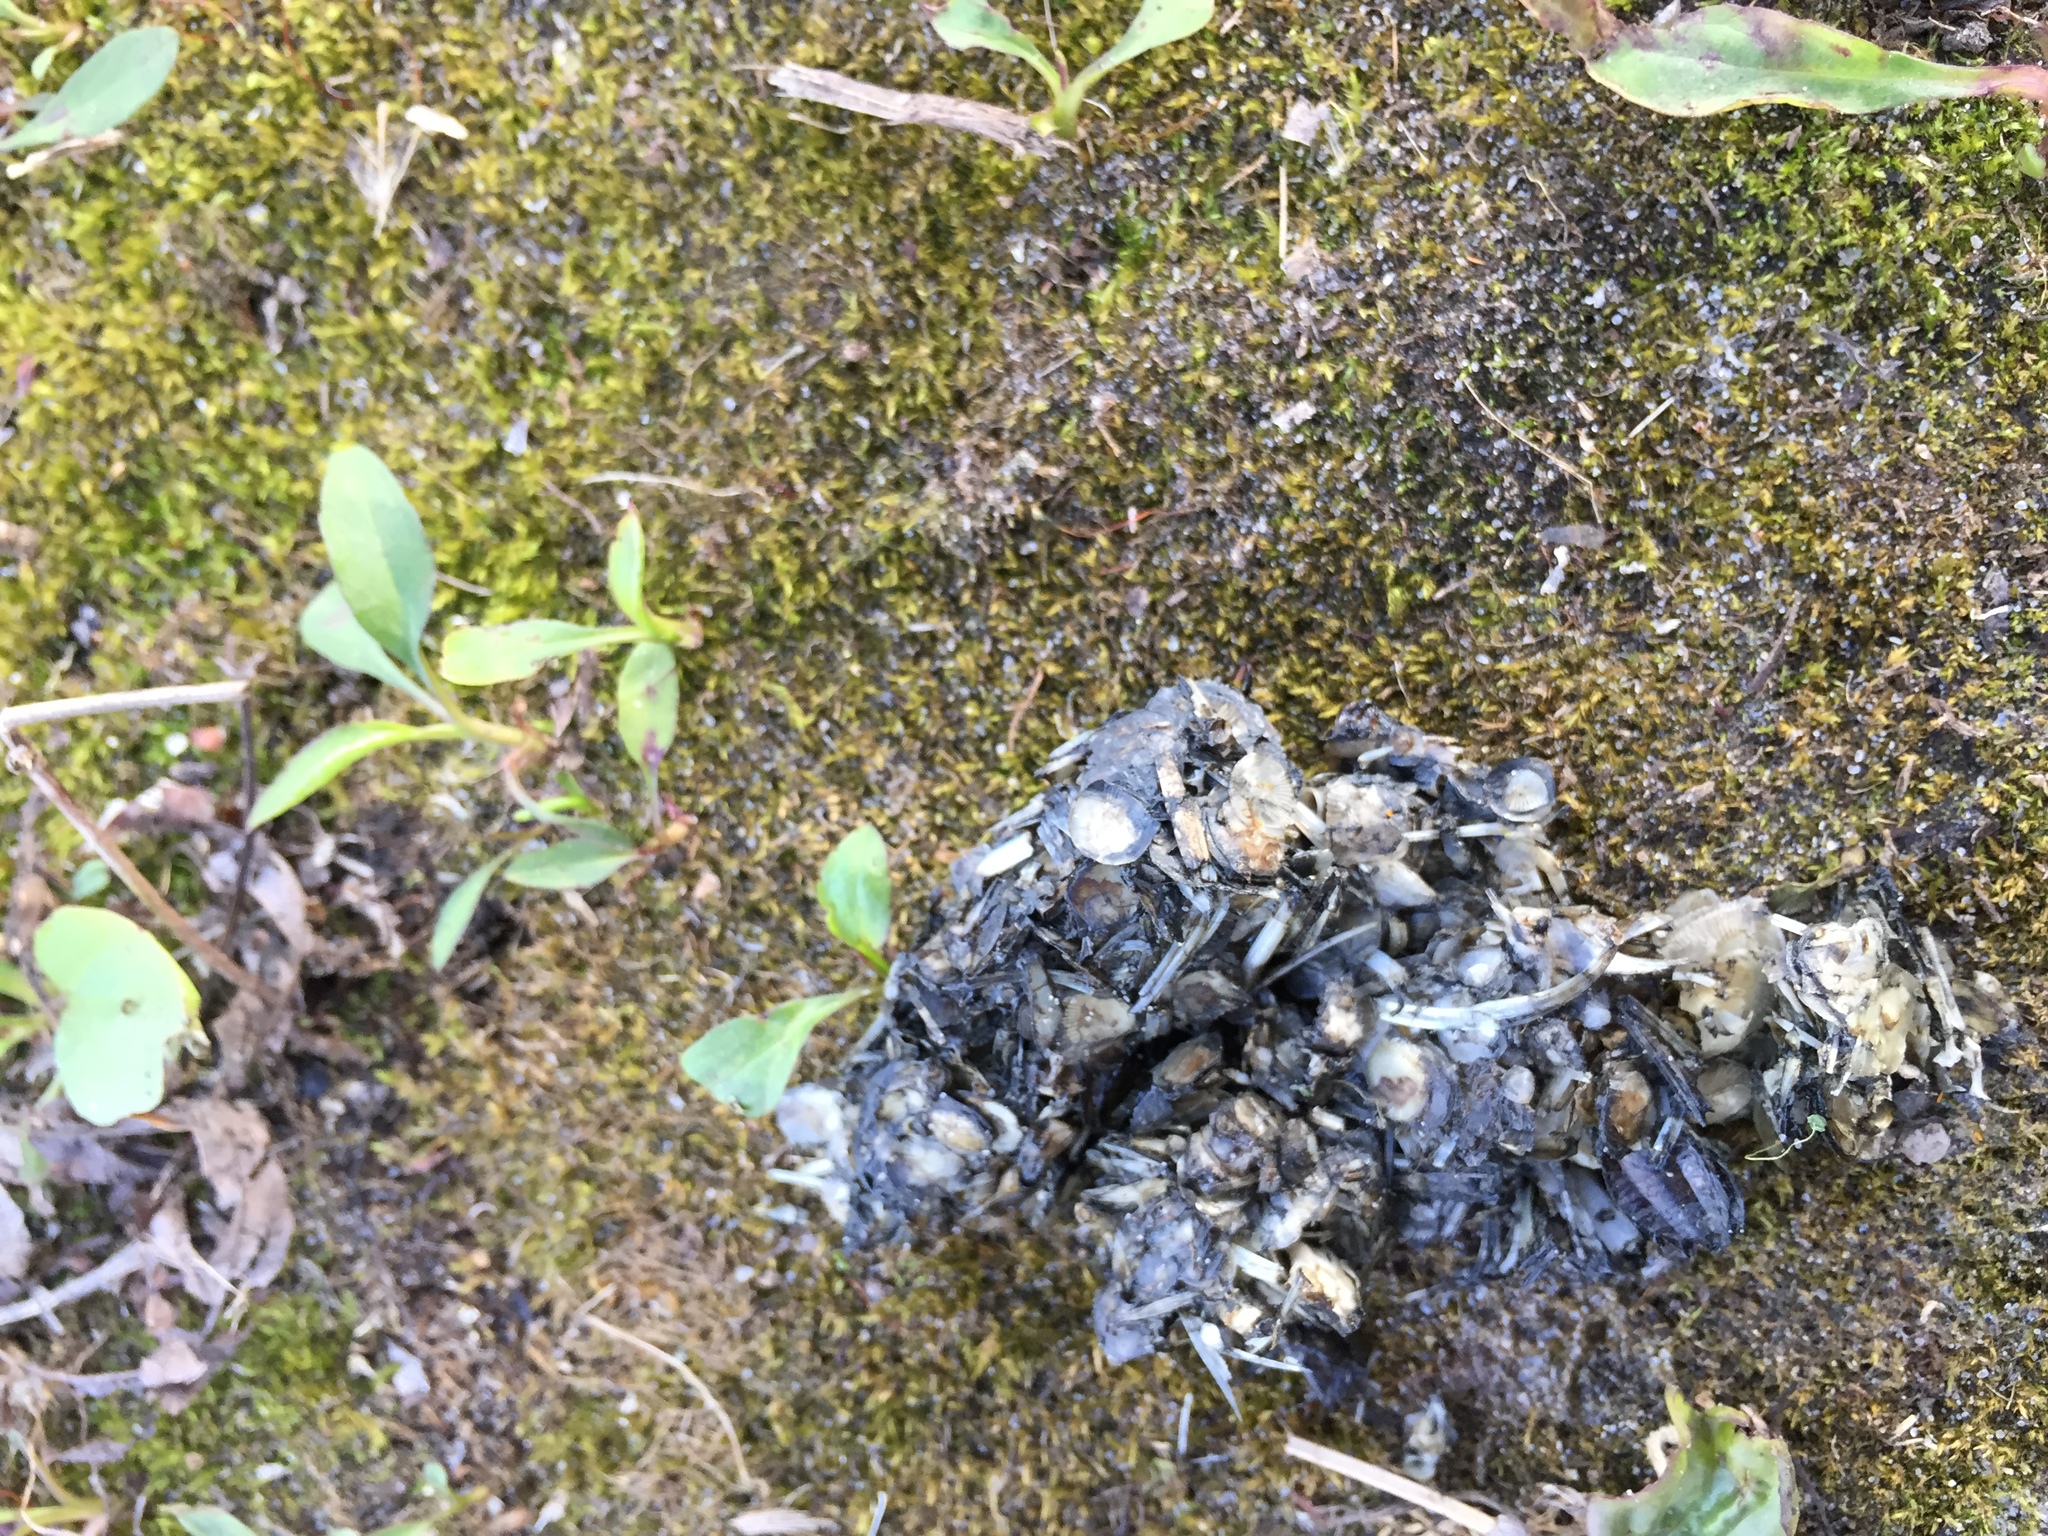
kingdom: Animalia
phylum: Chordata
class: Mammalia
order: Rodentia
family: Castoridae
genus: Castor
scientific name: Castor canadensis
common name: American beaver
